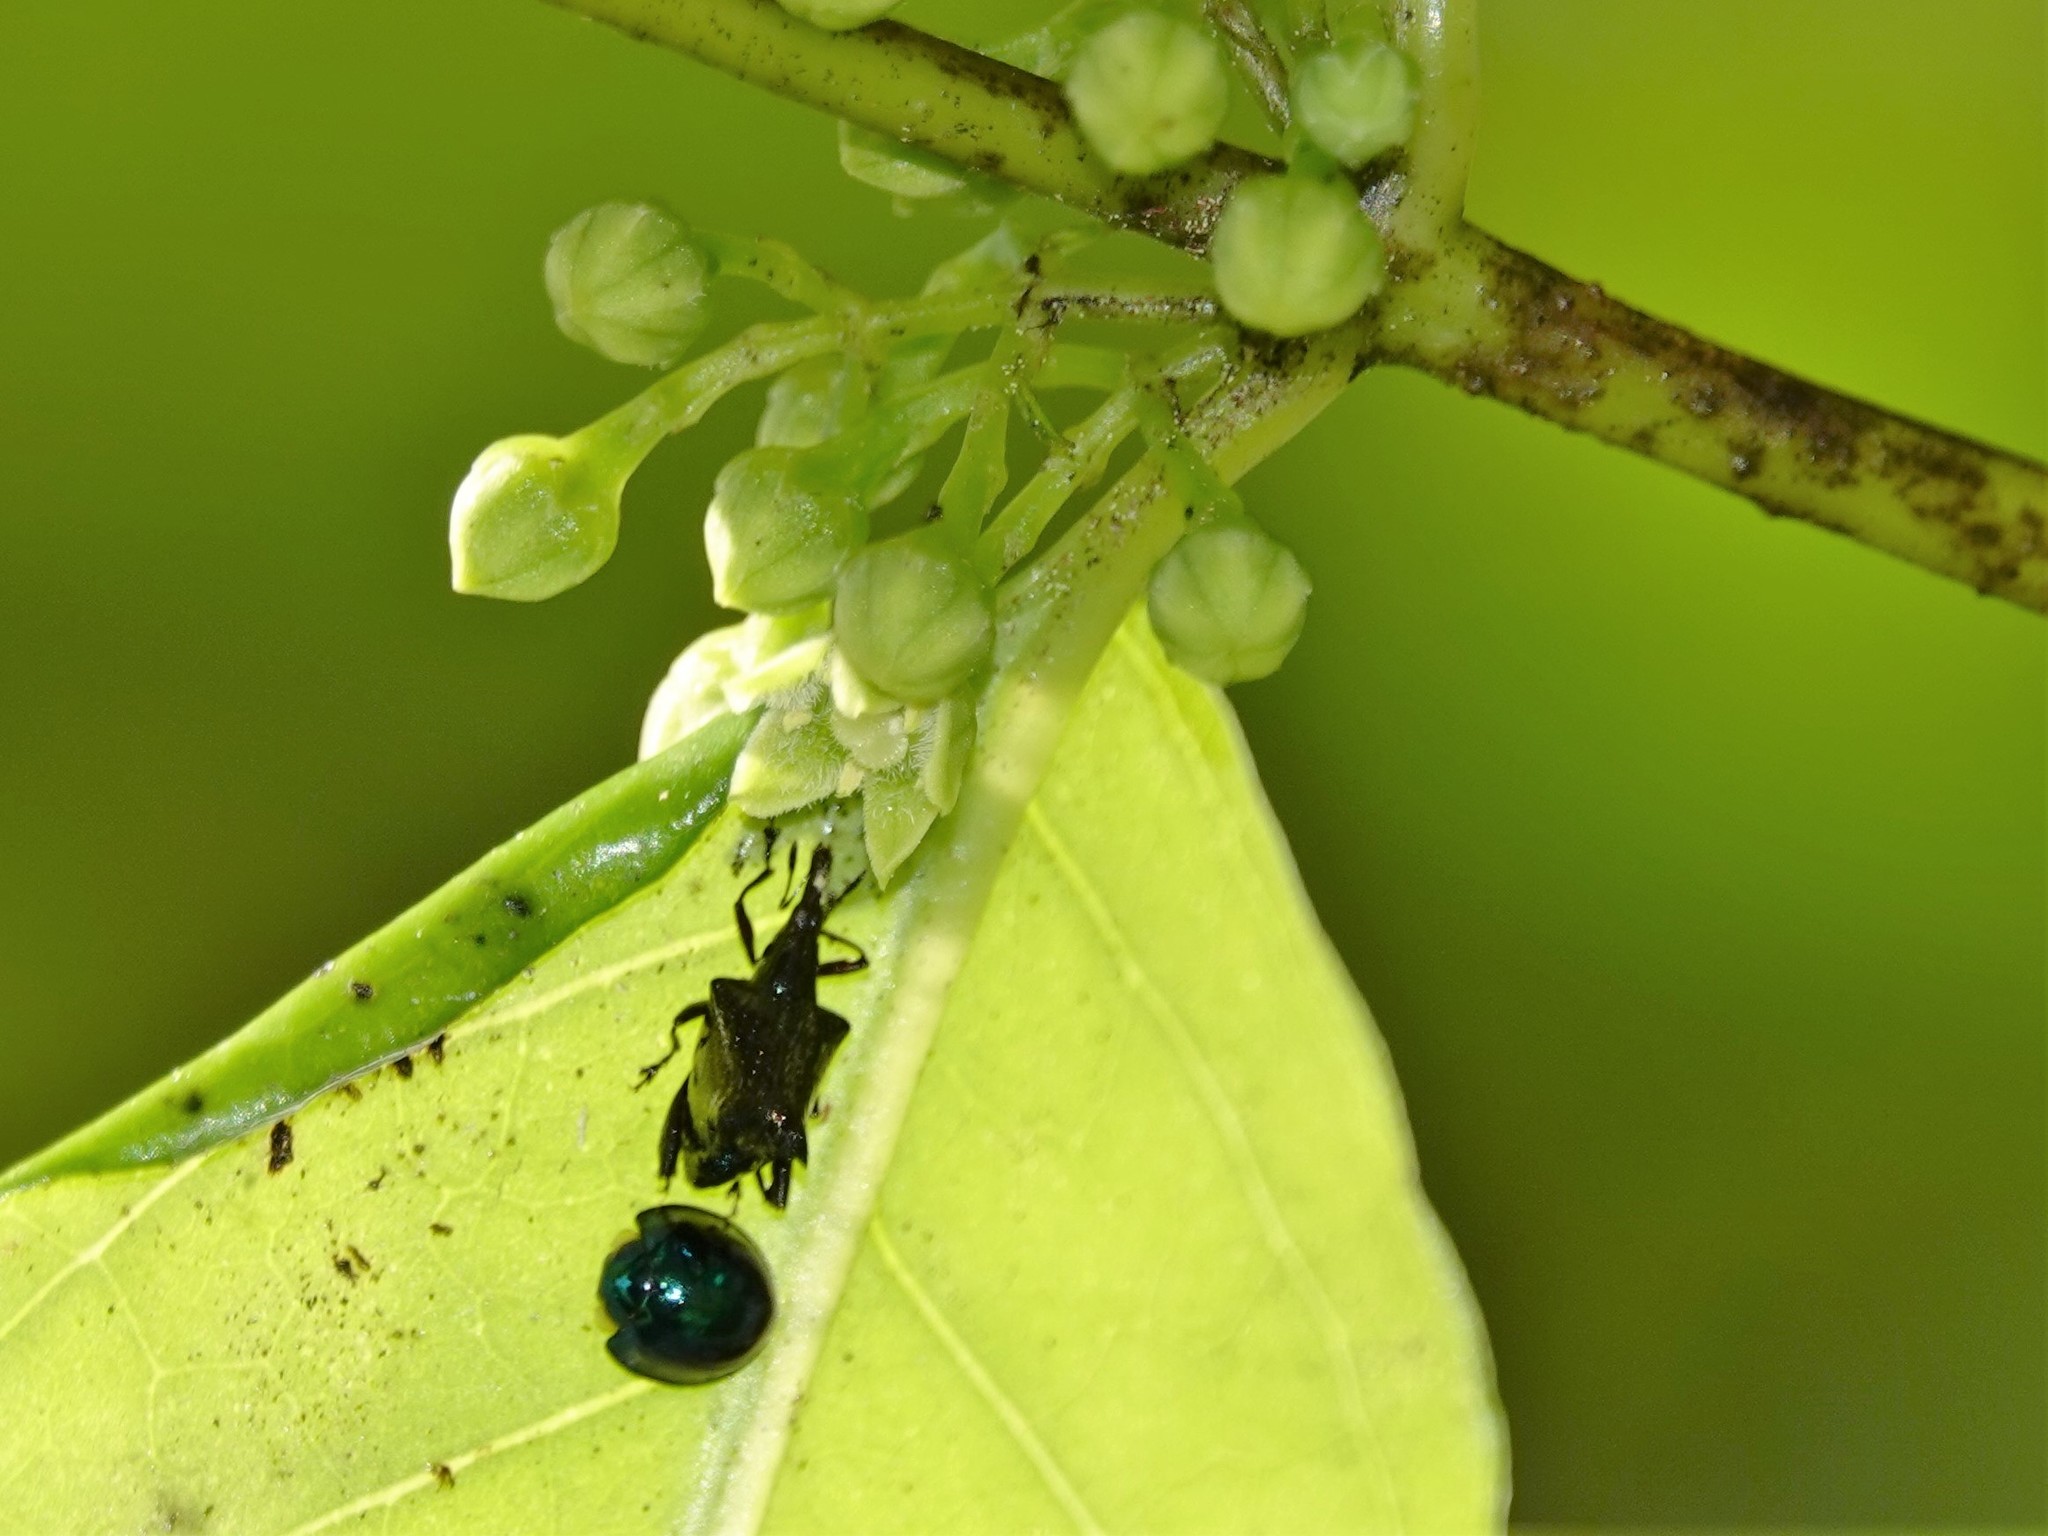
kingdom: Animalia
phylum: Arthropoda
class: Insecta
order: Coleoptera
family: Coccinellidae
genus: Halmus
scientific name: Halmus chalybeus
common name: Steel blue ladybird beetle
